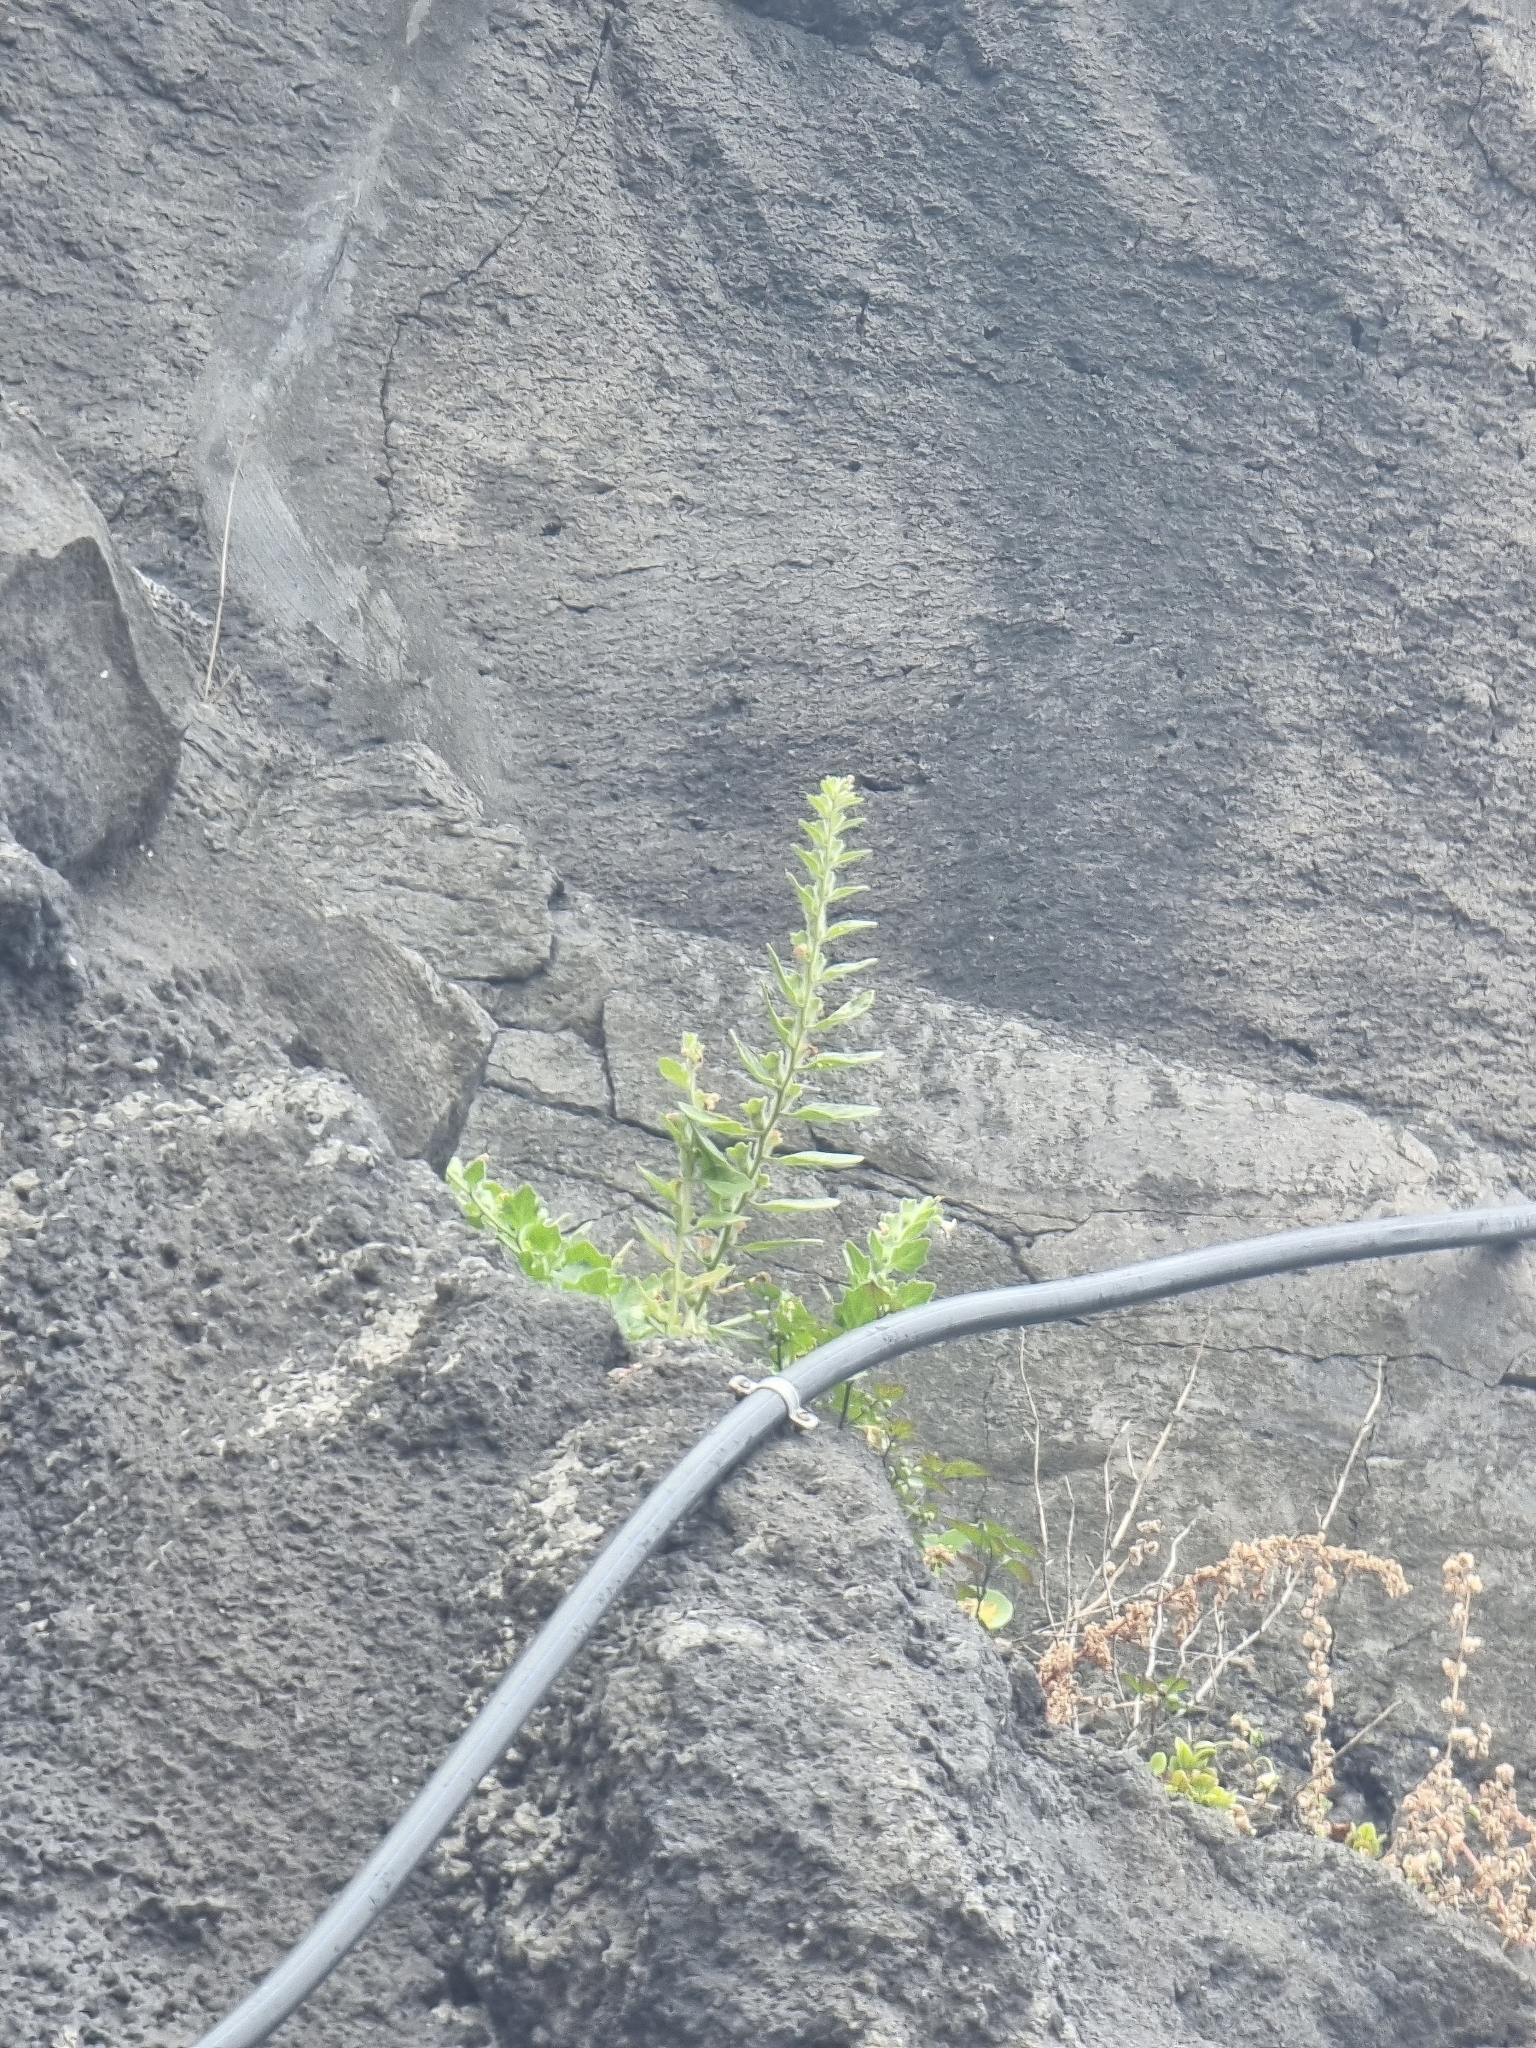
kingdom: Plantae
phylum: Tracheophyta
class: Magnoliopsida
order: Solanales
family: Solanaceae
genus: Hyoscyamus
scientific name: Hyoscyamus albus
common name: White henbane
